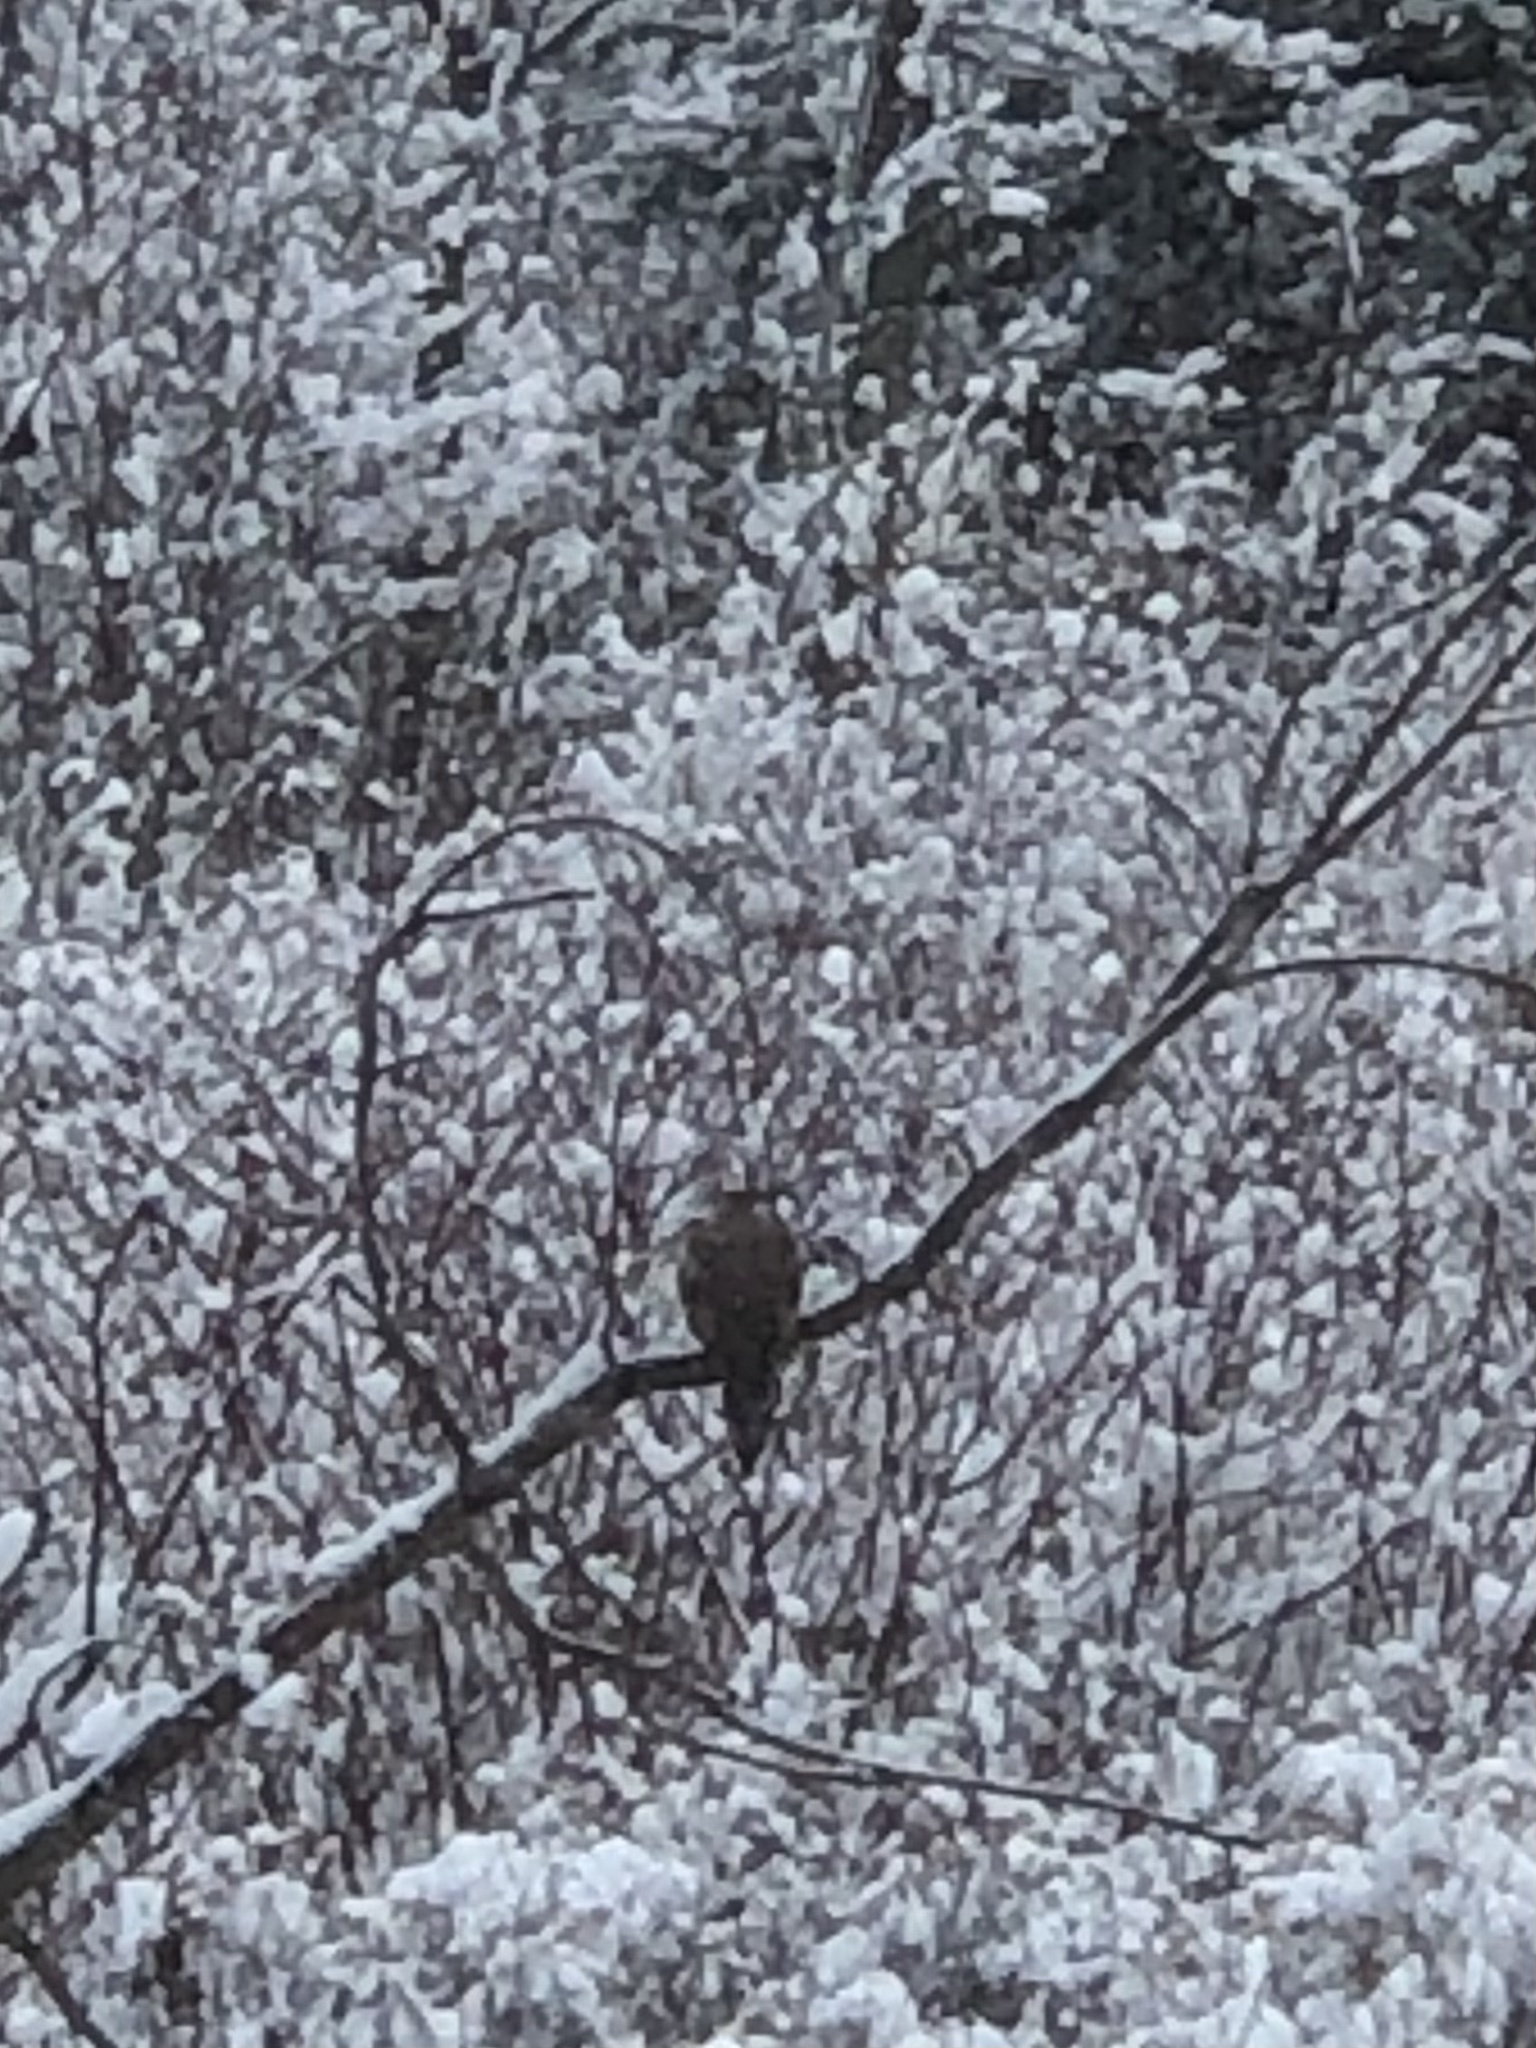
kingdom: Animalia
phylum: Chordata
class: Aves
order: Columbiformes
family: Columbidae
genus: Zenaida
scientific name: Zenaida macroura
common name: Mourning dove
